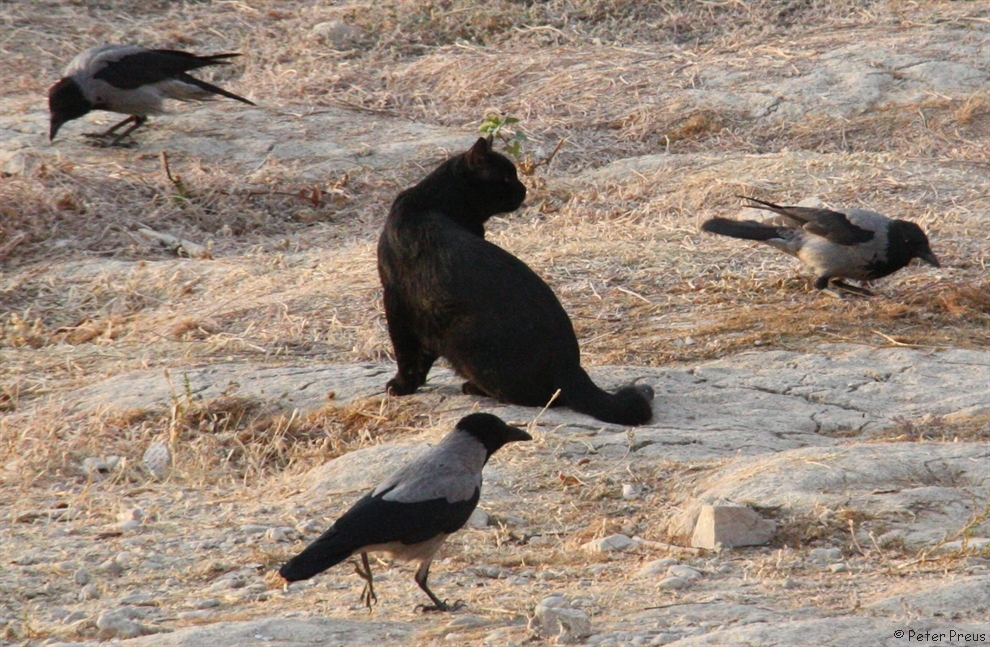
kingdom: Animalia
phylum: Chordata
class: Aves
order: Passeriformes
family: Corvidae
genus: Corvus
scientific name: Corvus cornix
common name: Hooded crow
